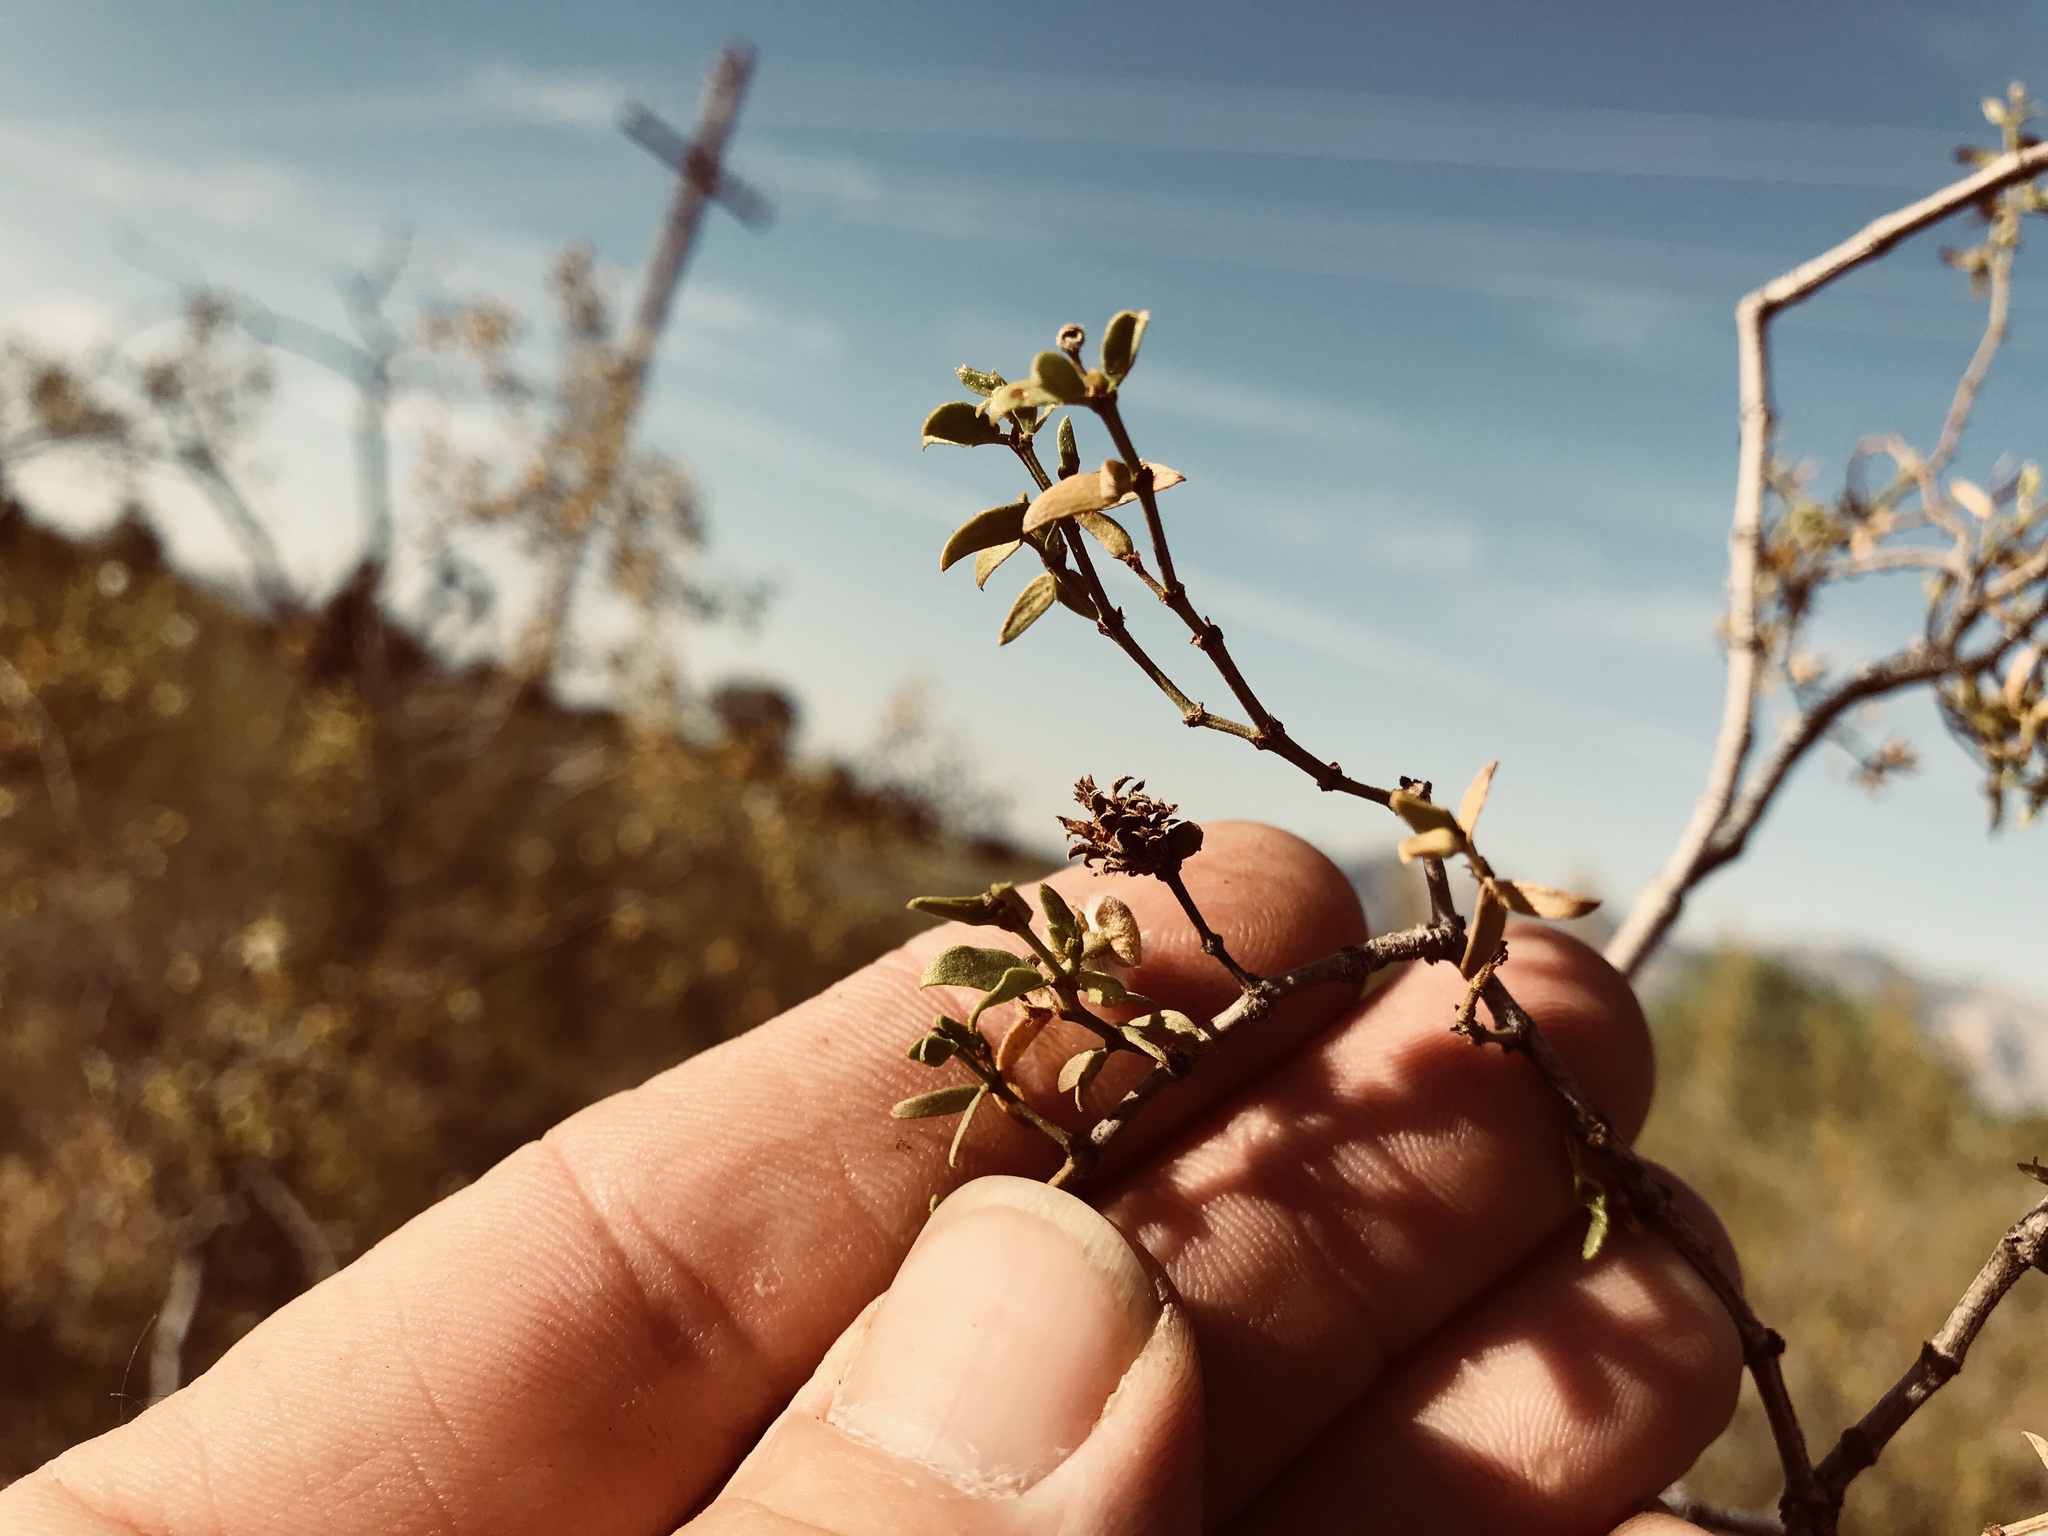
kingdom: Animalia
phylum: Arthropoda
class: Insecta
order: Diptera
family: Cecidomyiidae
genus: Asphondylia
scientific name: Asphondylia rosetta
